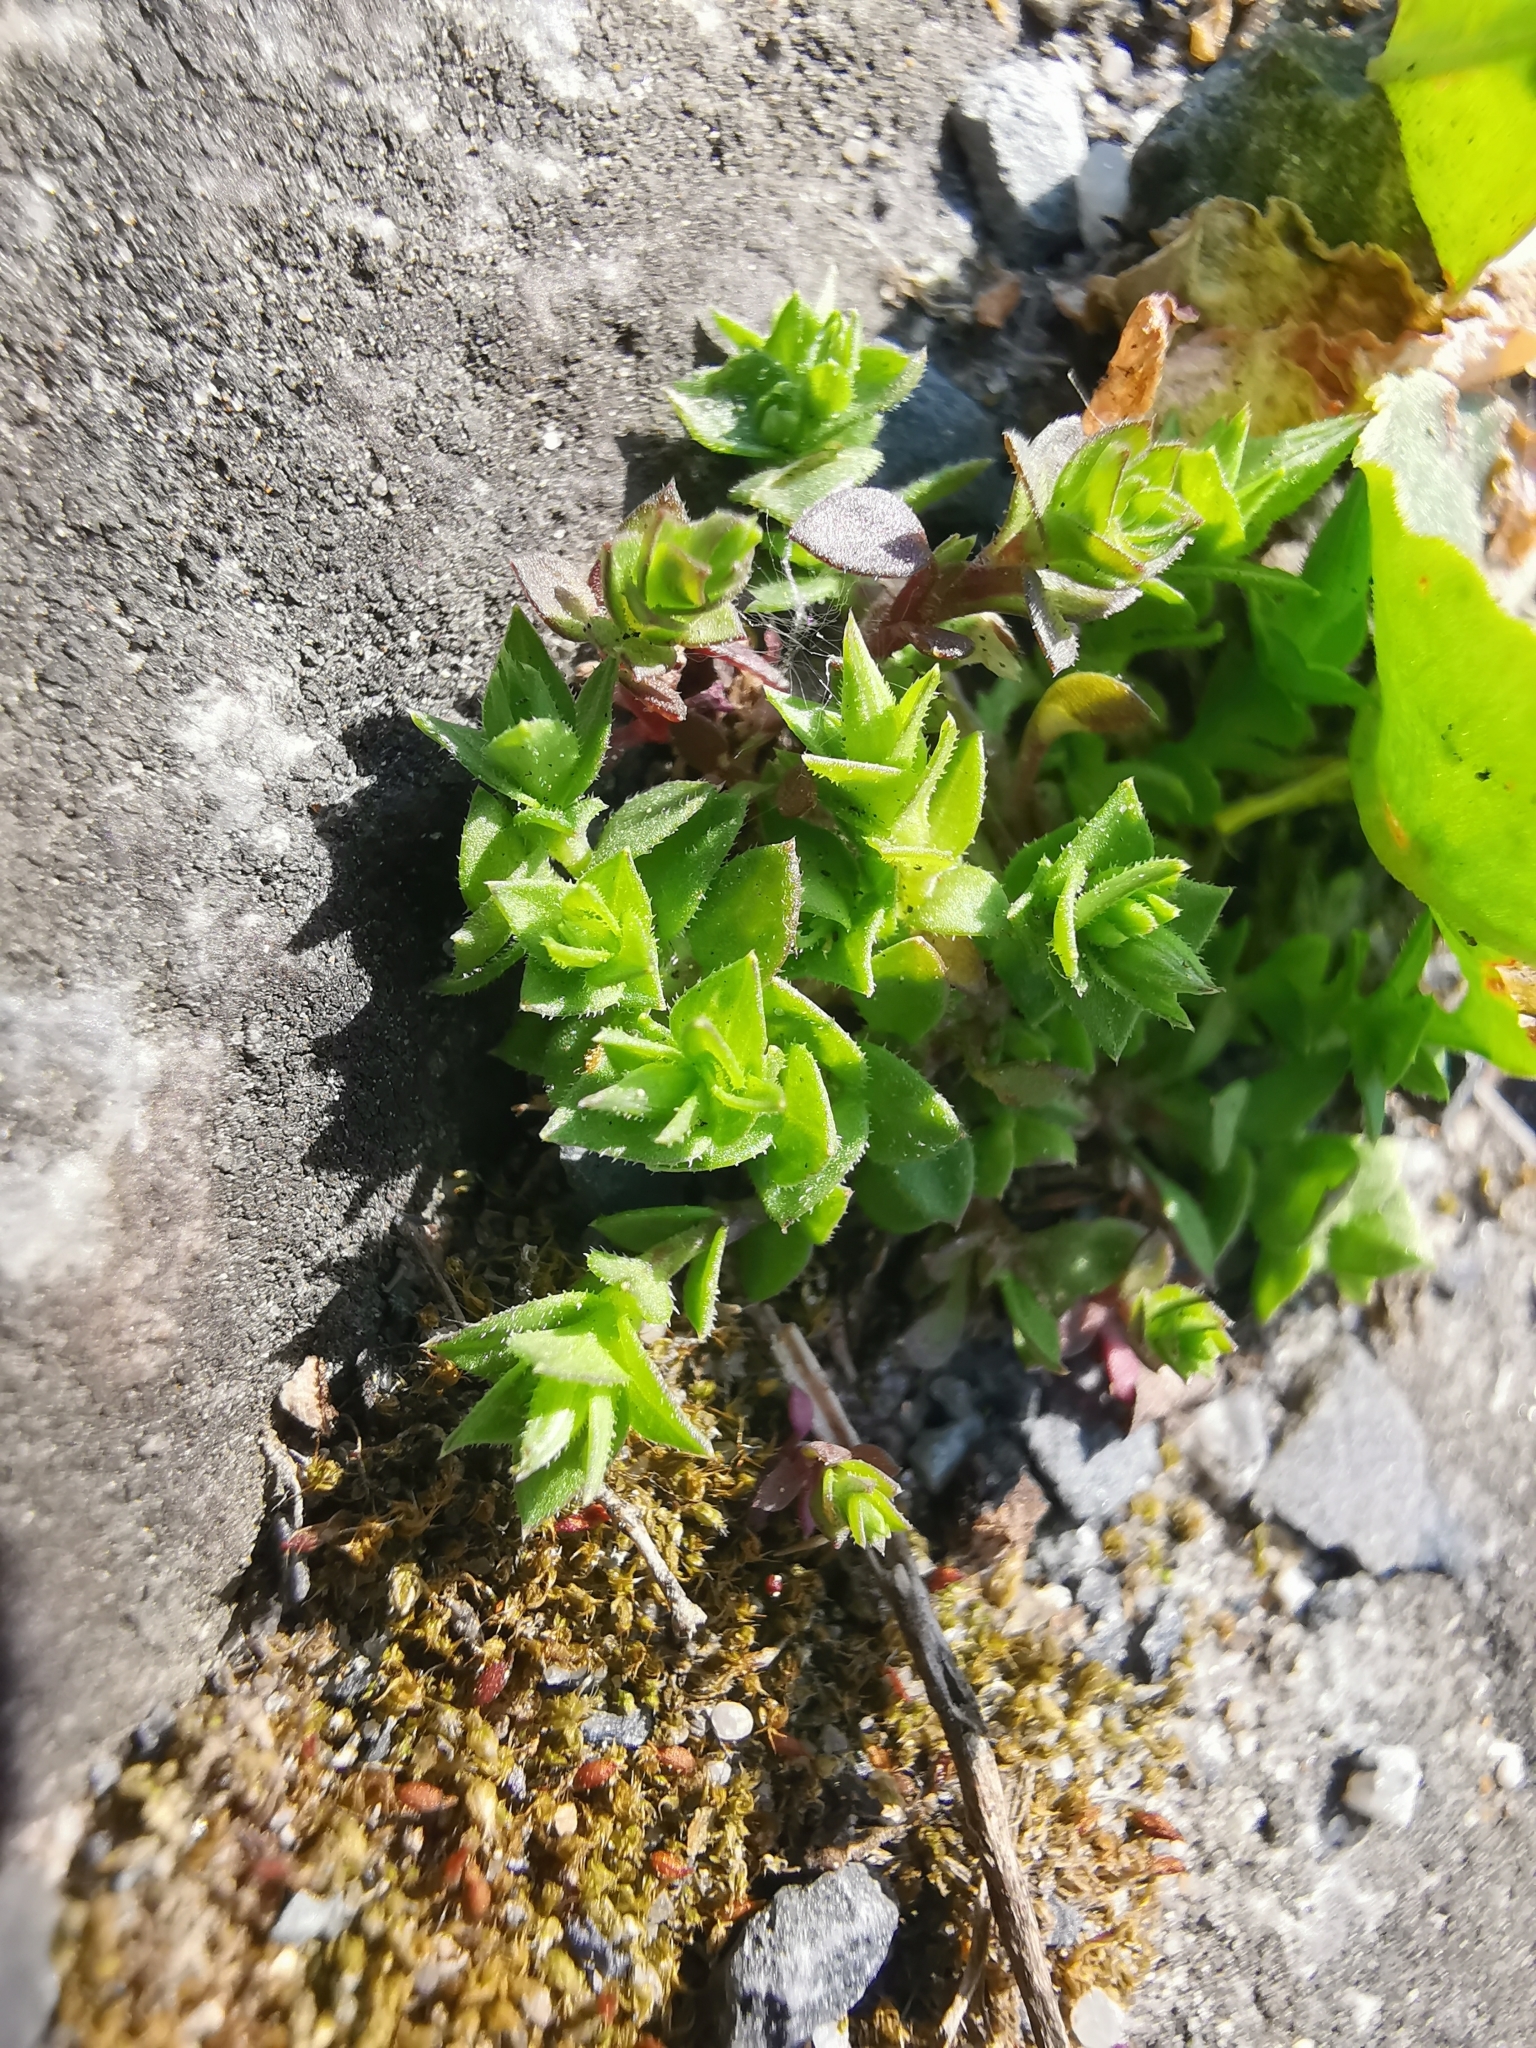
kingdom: Plantae
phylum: Tracheophyta
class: Magnoliopsida
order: Caryophyllales
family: Caryophyllaceae
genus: Arenaria
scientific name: Arenaria serpyllifolia
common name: Thyme-leaved sandwort
